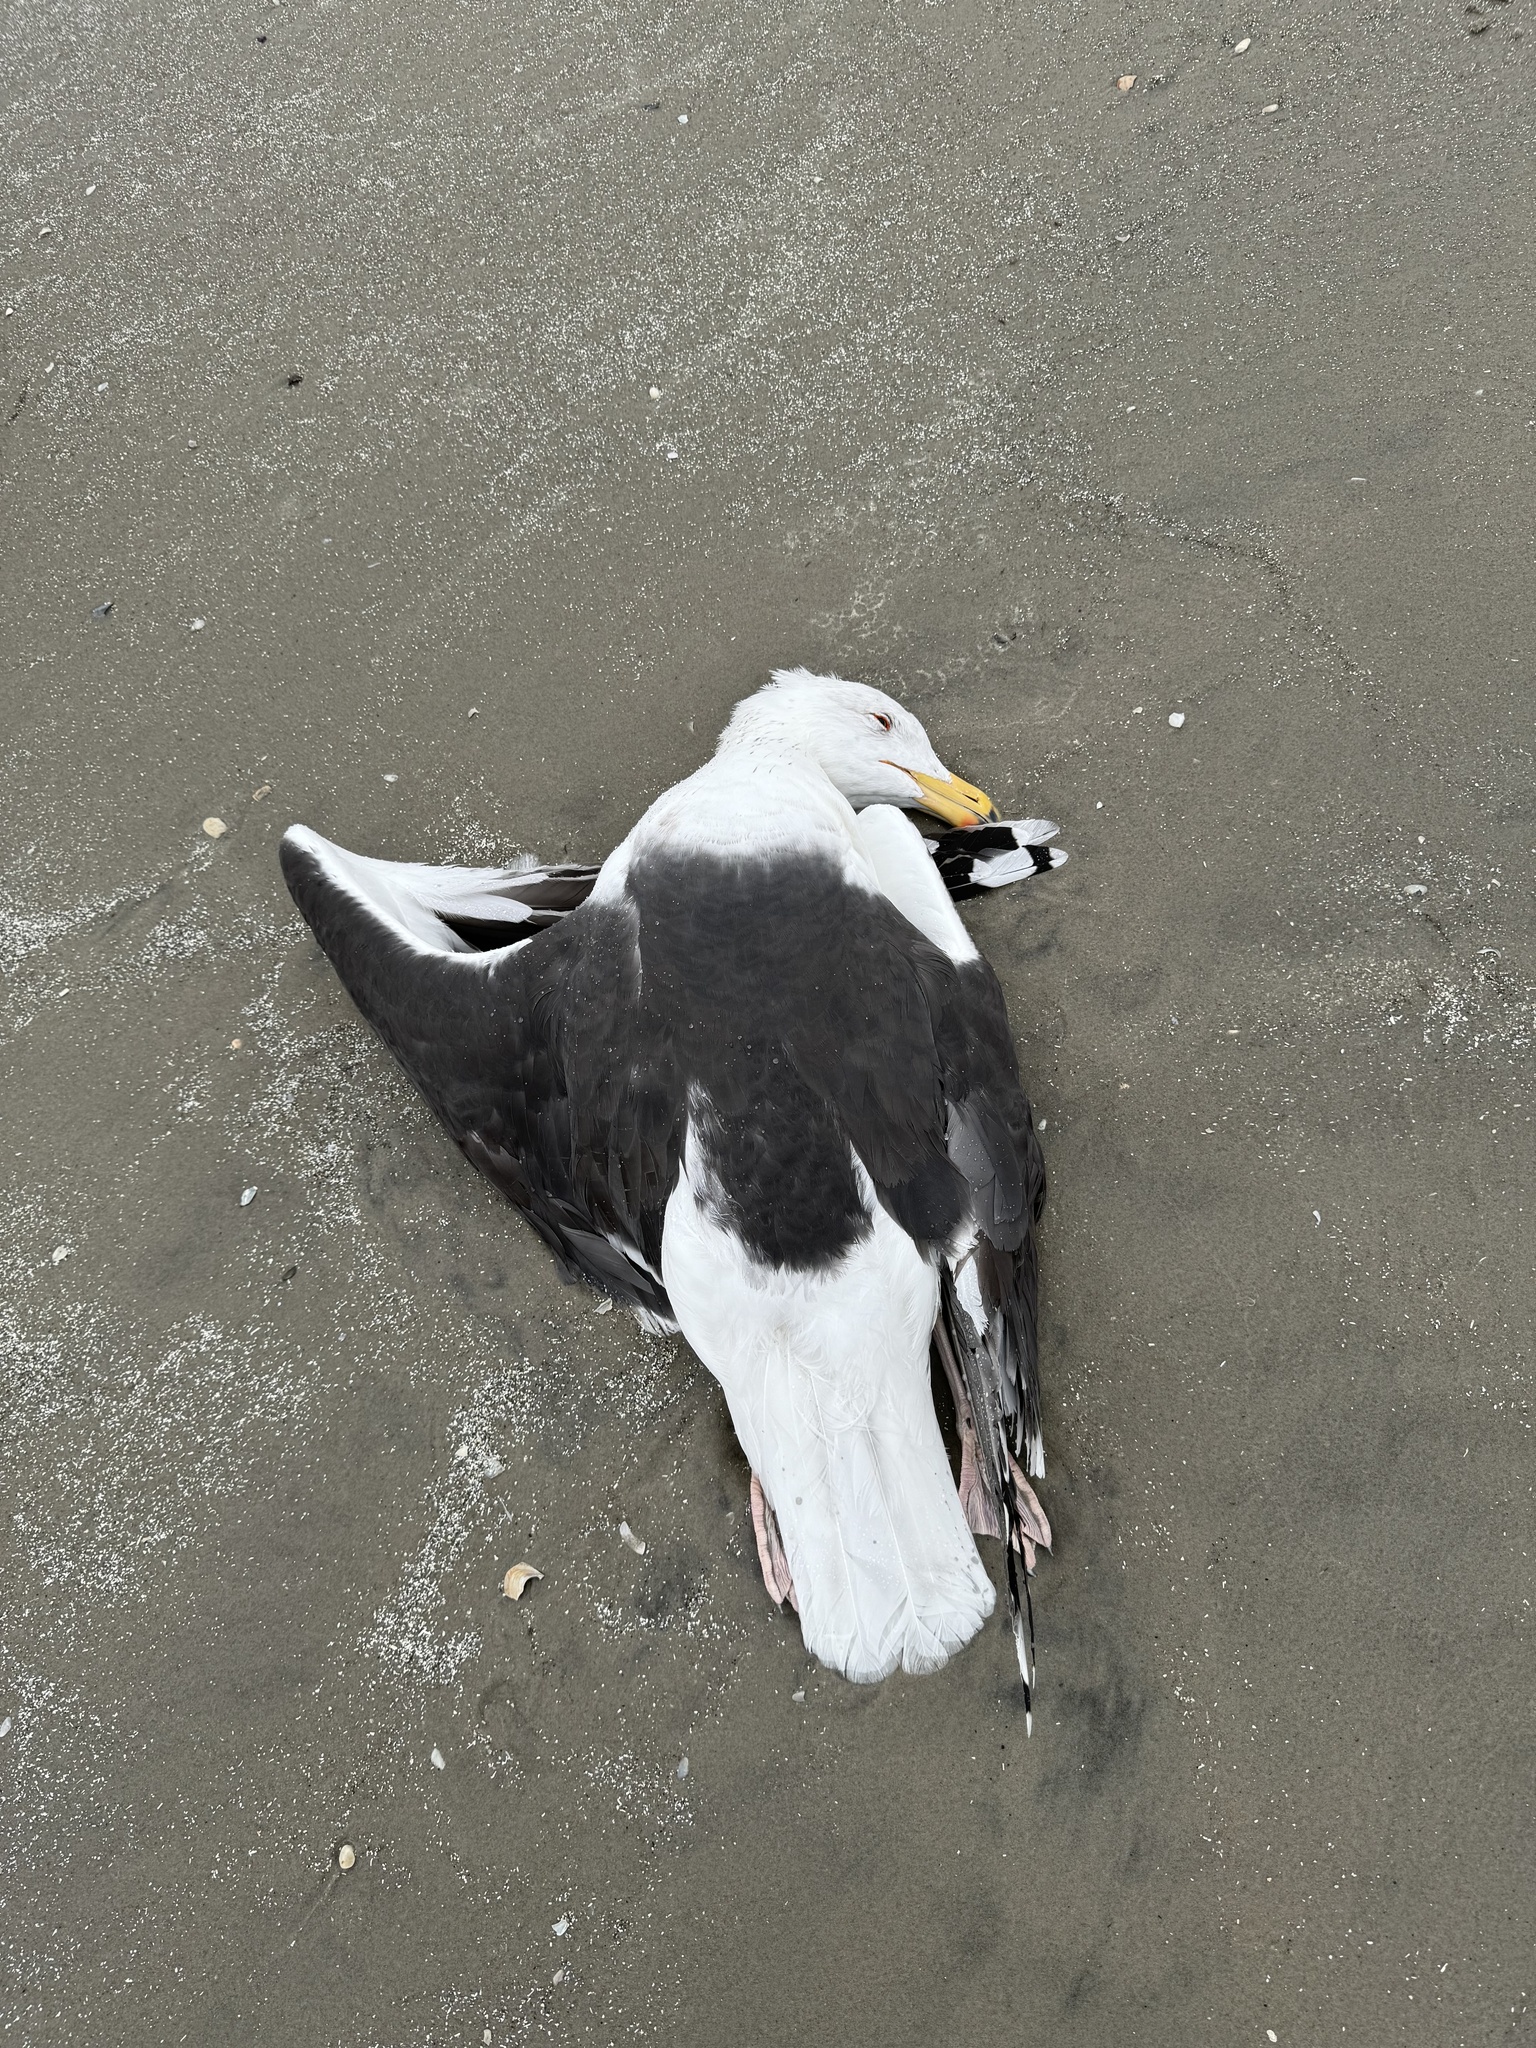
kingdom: Animalia
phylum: Chordata
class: Aves
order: Charadriiformes
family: Laridae
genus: Larus
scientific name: Larus marinus
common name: Great black-backed gull
